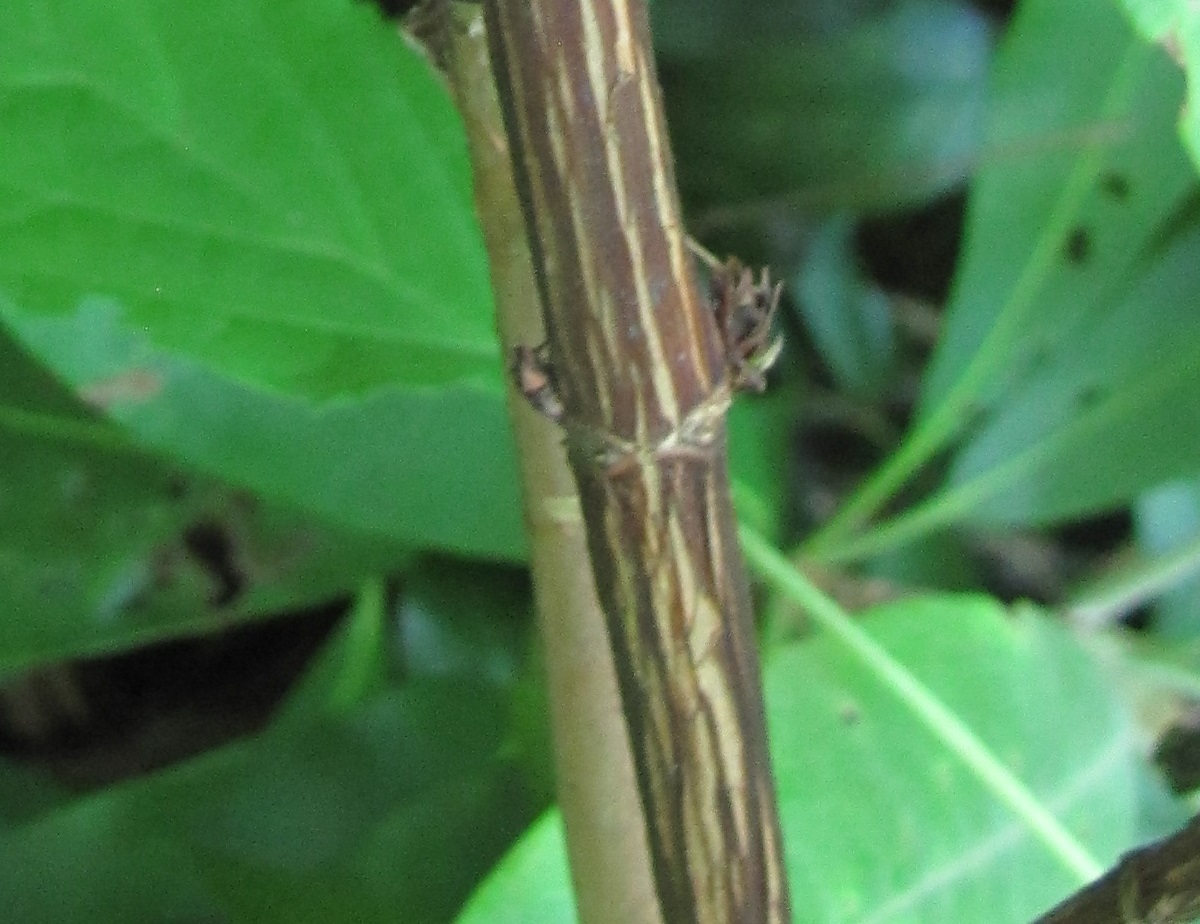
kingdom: Plantae
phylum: Tracheophyta
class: Magnoliopsida
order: Cornales
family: Hydrangeaceae
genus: Hydrangea
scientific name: Hydrangea arborescens
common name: Sevenbark
